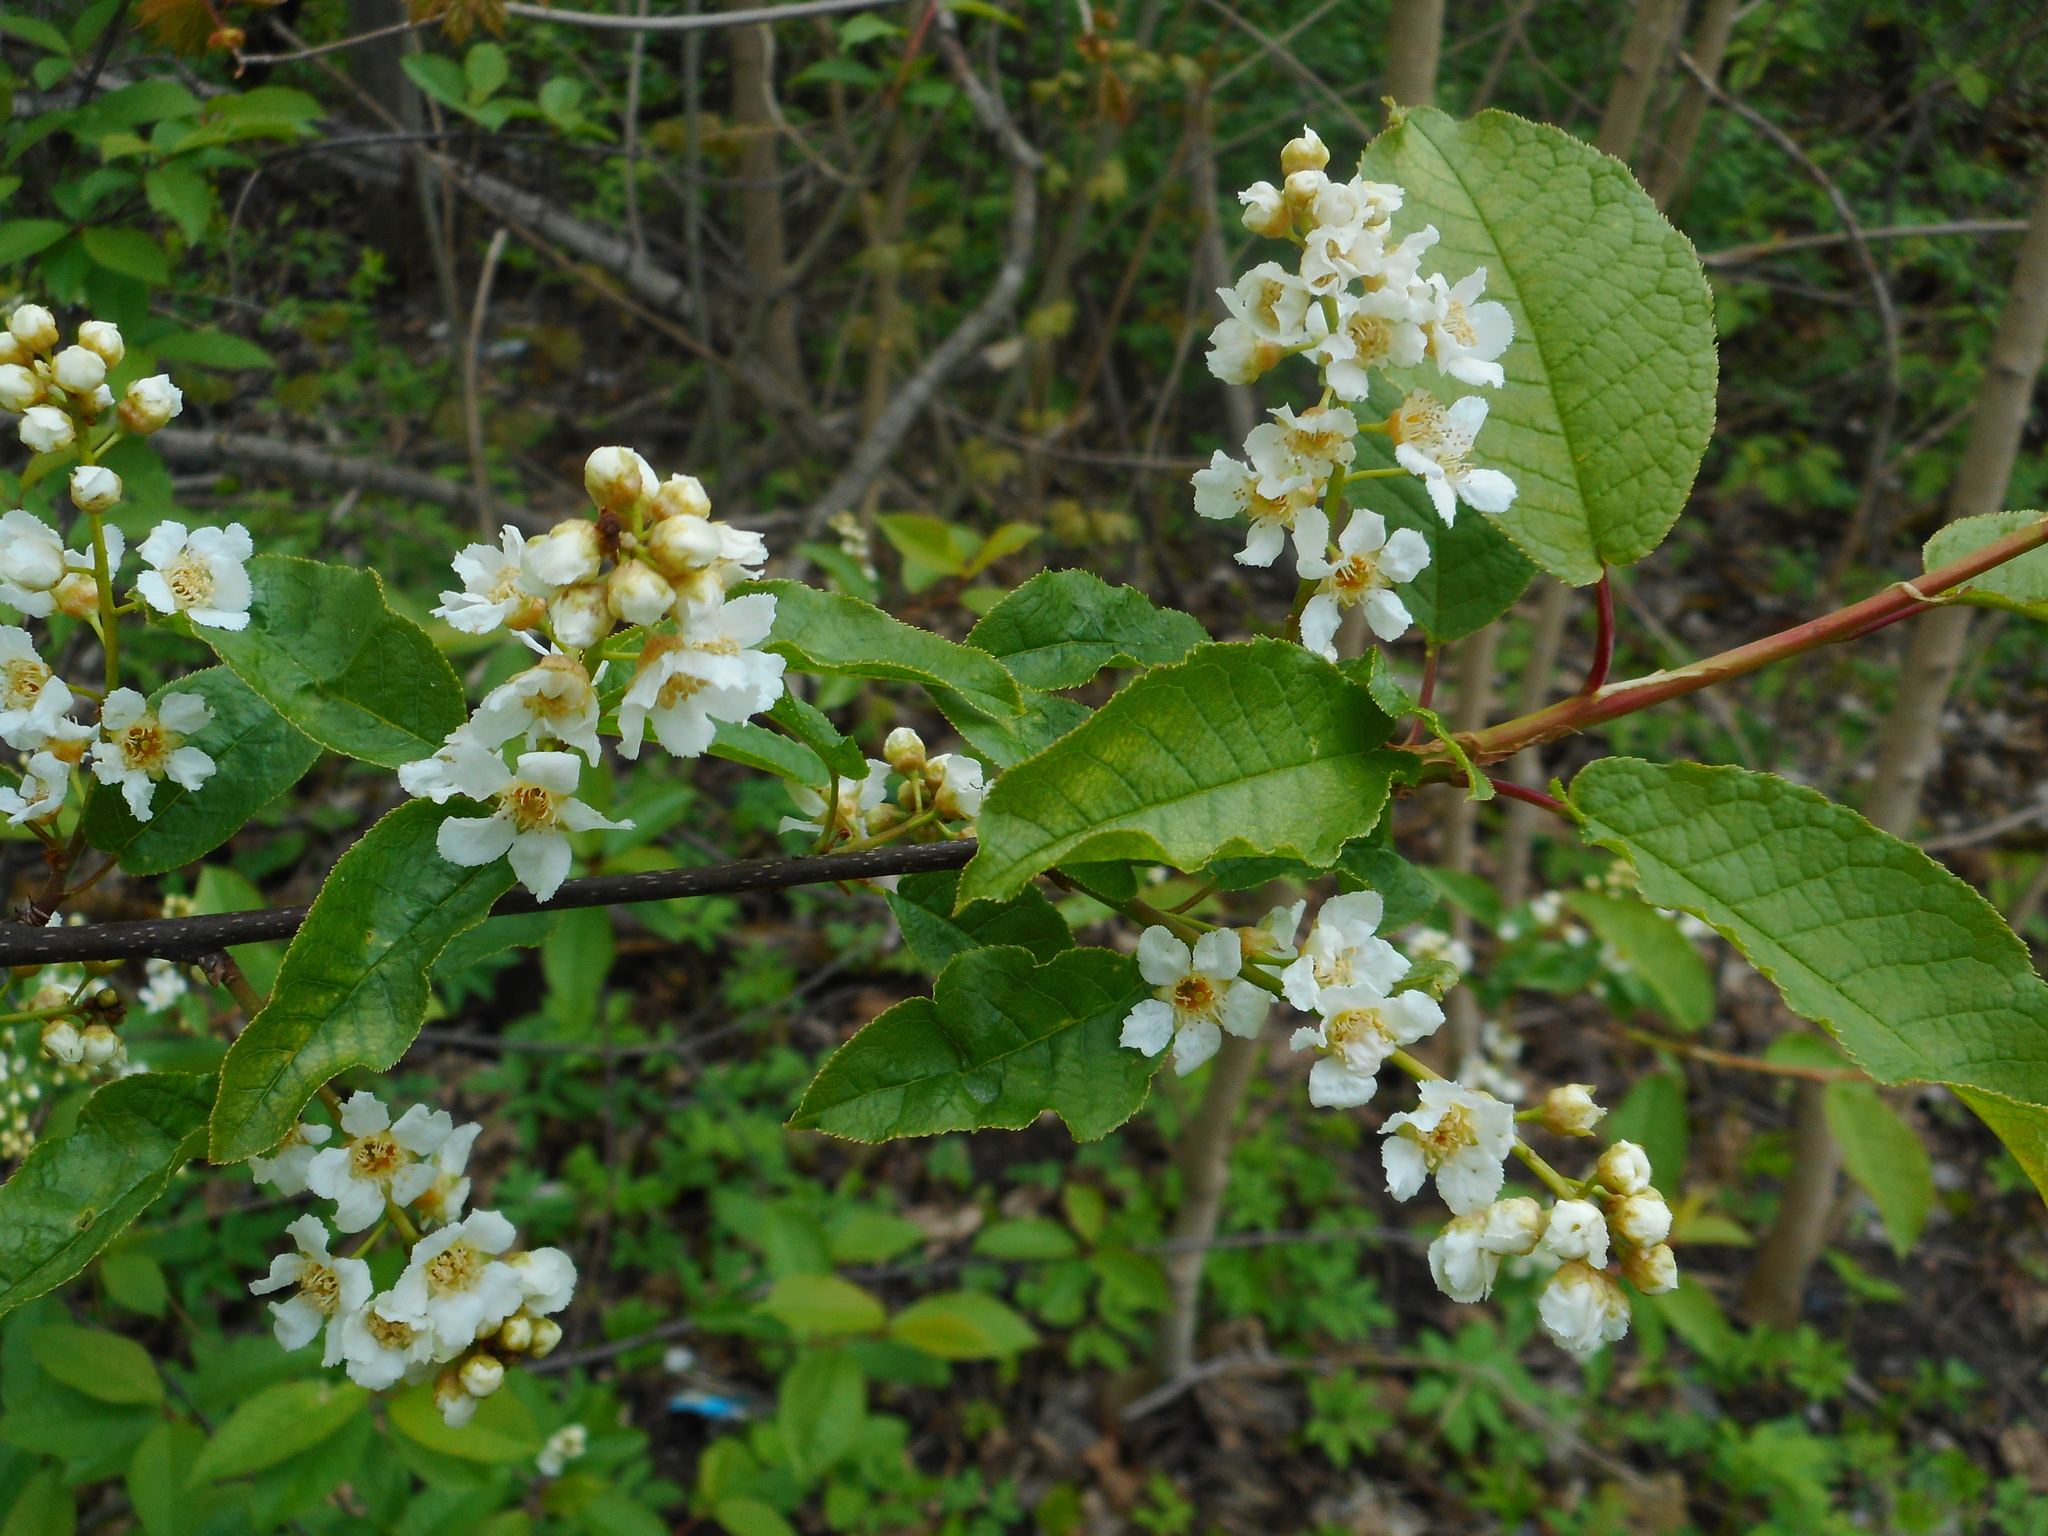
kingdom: Plantae
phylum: Tracheophyta
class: Magnoliopsida
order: Rosales
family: Rosaceae
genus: Prunus
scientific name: Prunus padus
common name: Bird cherry
